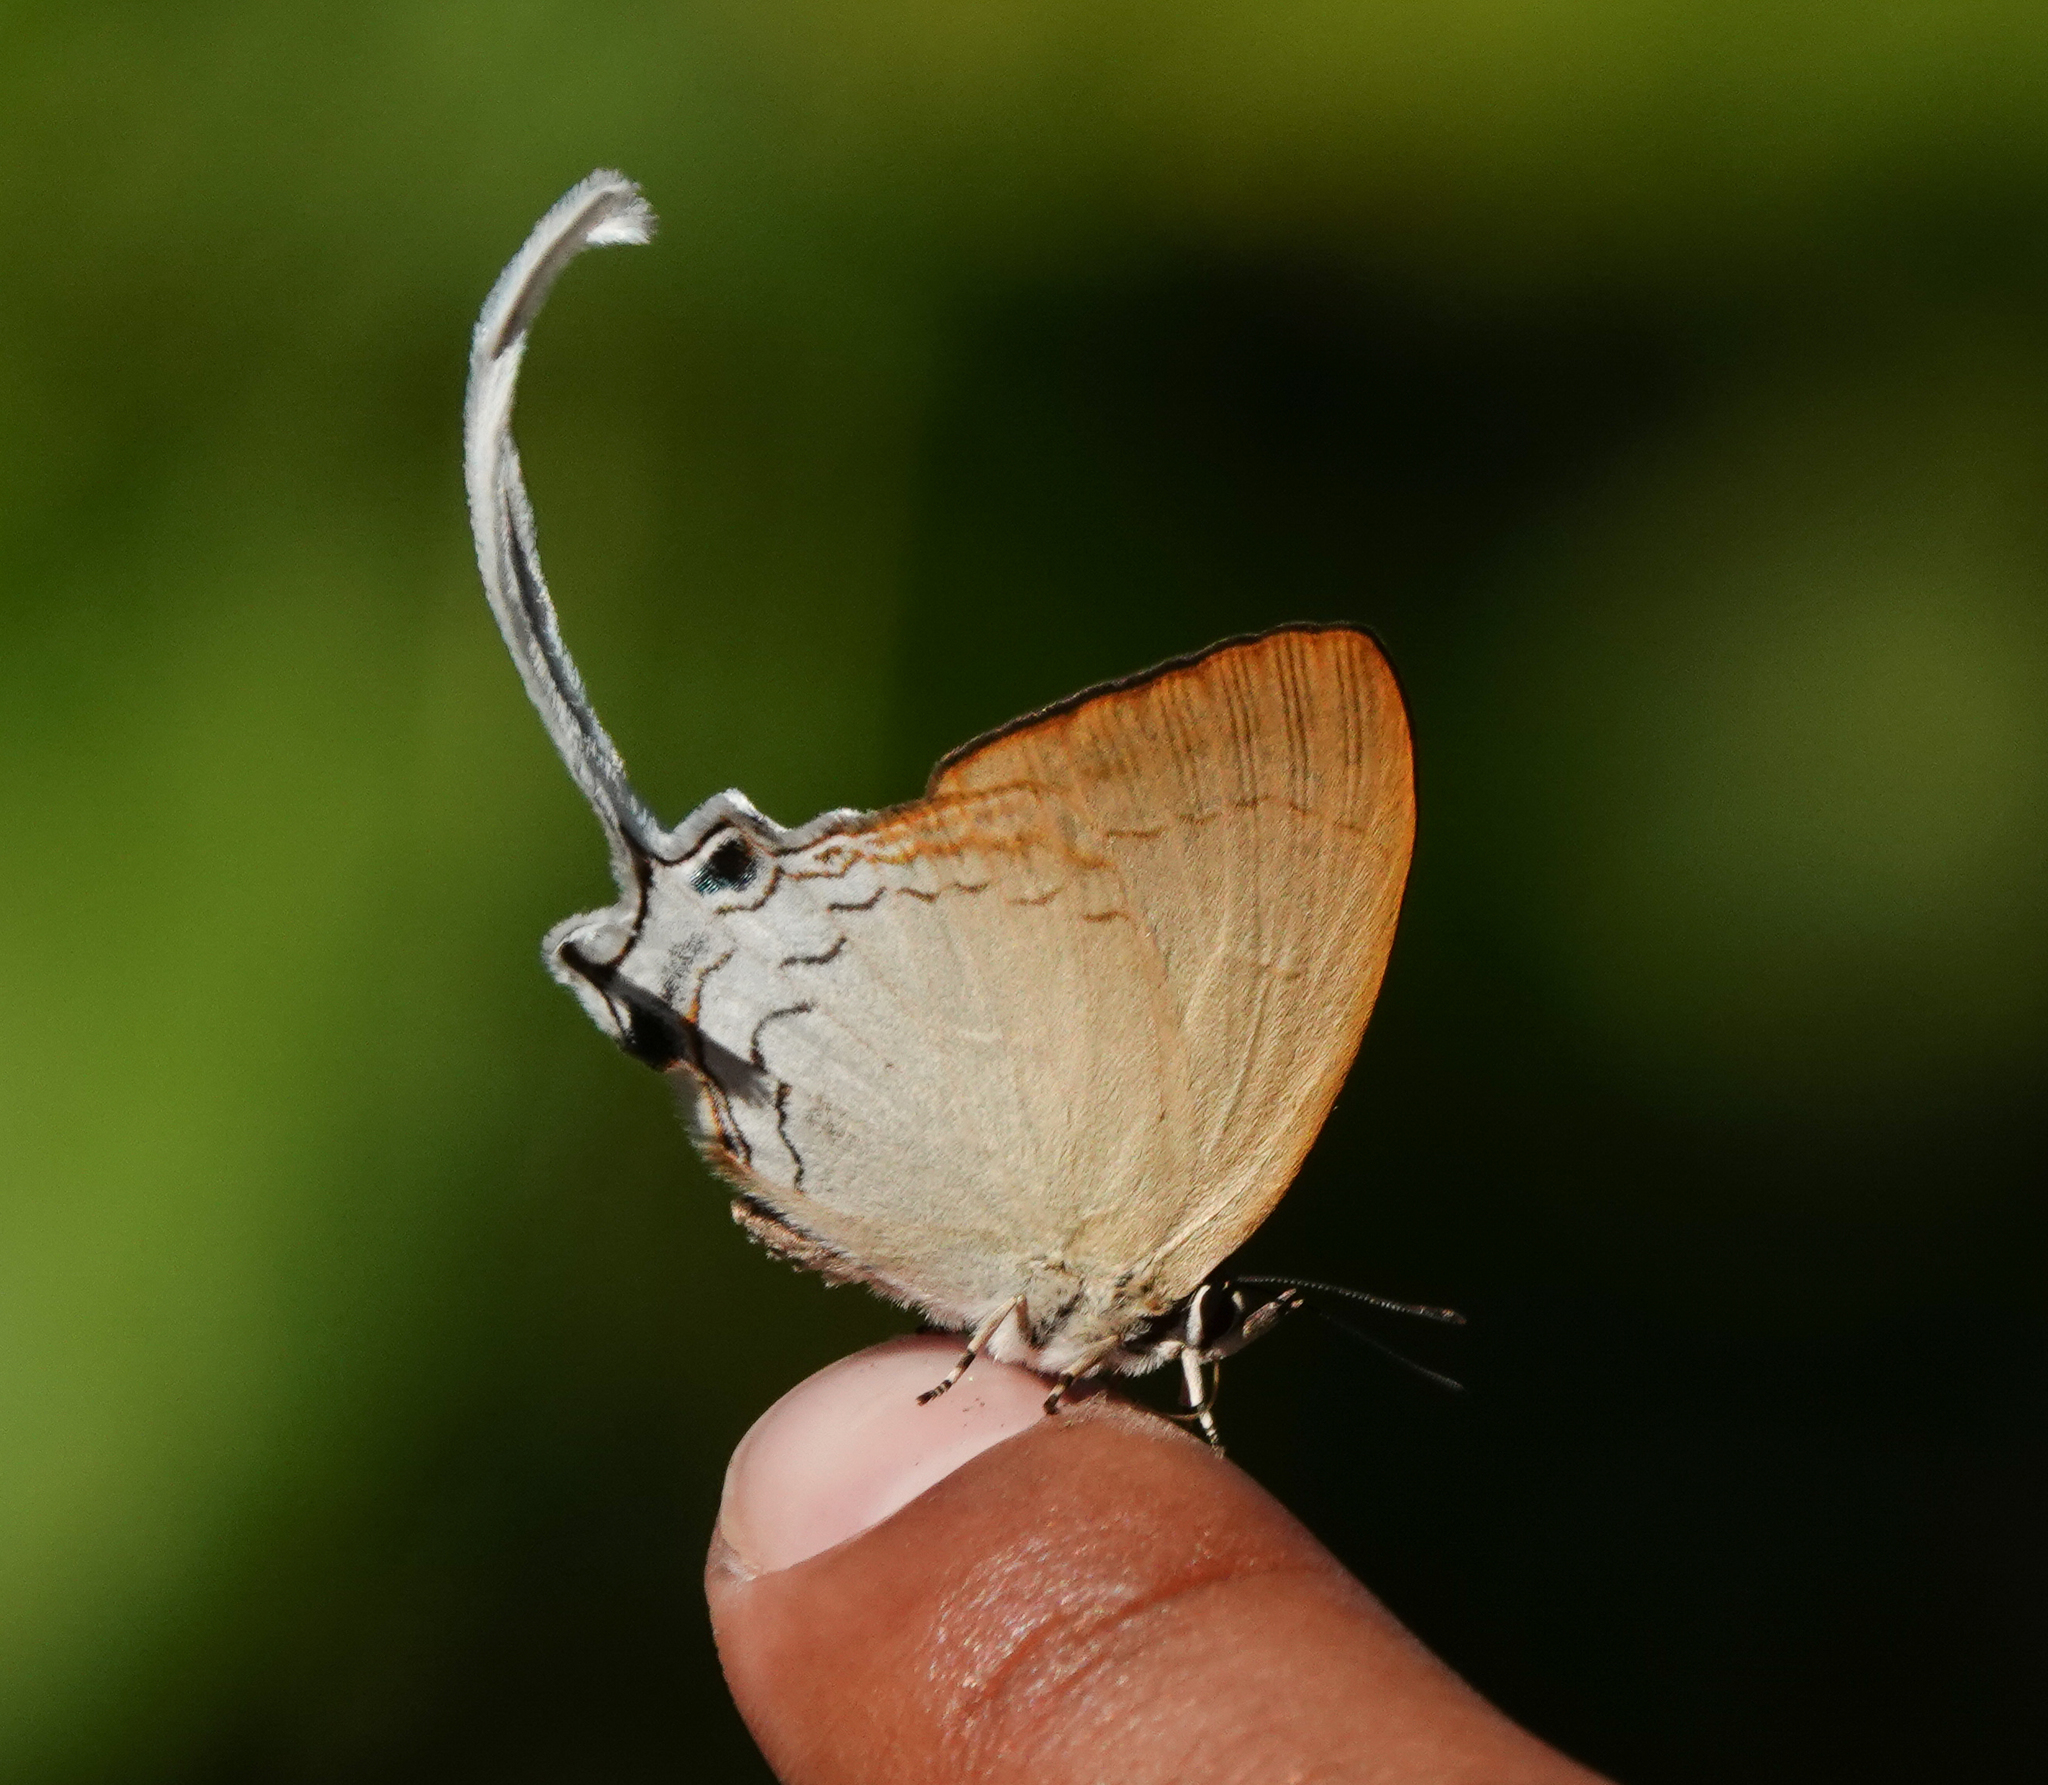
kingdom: Animalia
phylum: Arthropoda
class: Insecta
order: Lepidoptera
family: Lycaenidae
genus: Cheritra
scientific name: Cheritra freja
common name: Common imperial
